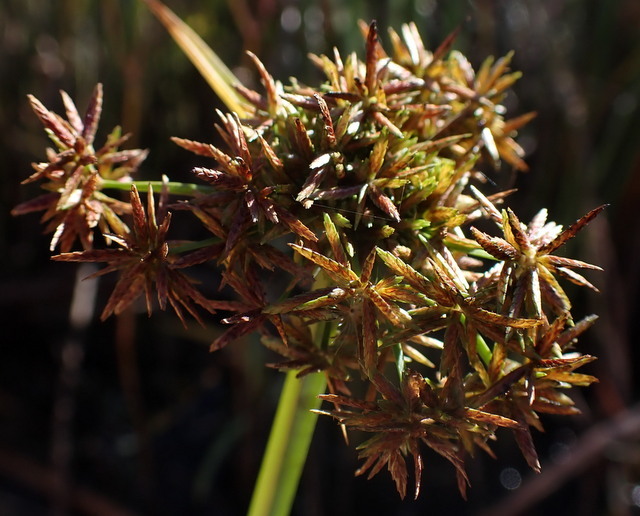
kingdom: Plantae
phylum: Tracheophyta
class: Liliopsida
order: Poales
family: Cyperaceae
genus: Cyperus
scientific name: Cyperus odoratus
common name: Fragrant flatsedge
